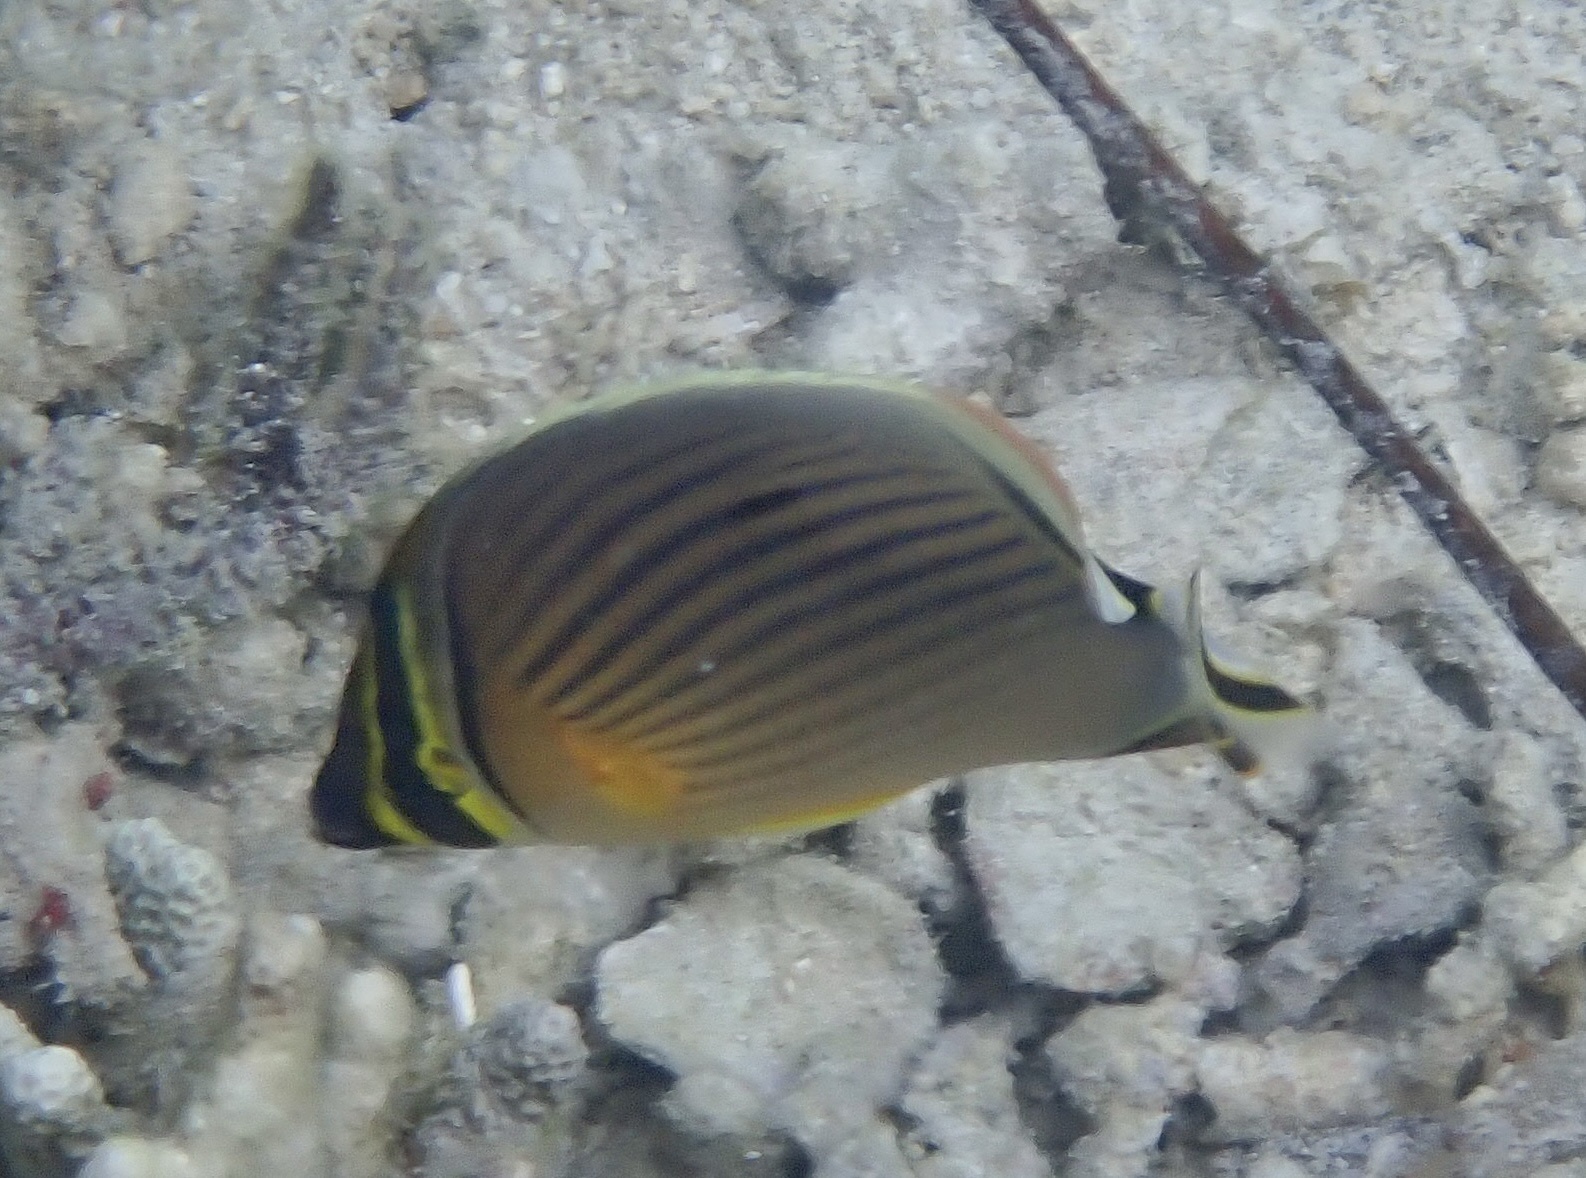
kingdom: Animalia
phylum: Chordata
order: Perciformes
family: Chaetodontidae
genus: Chaetodon
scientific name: Chaetodon lunulatus
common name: Redfin butterflyfish
